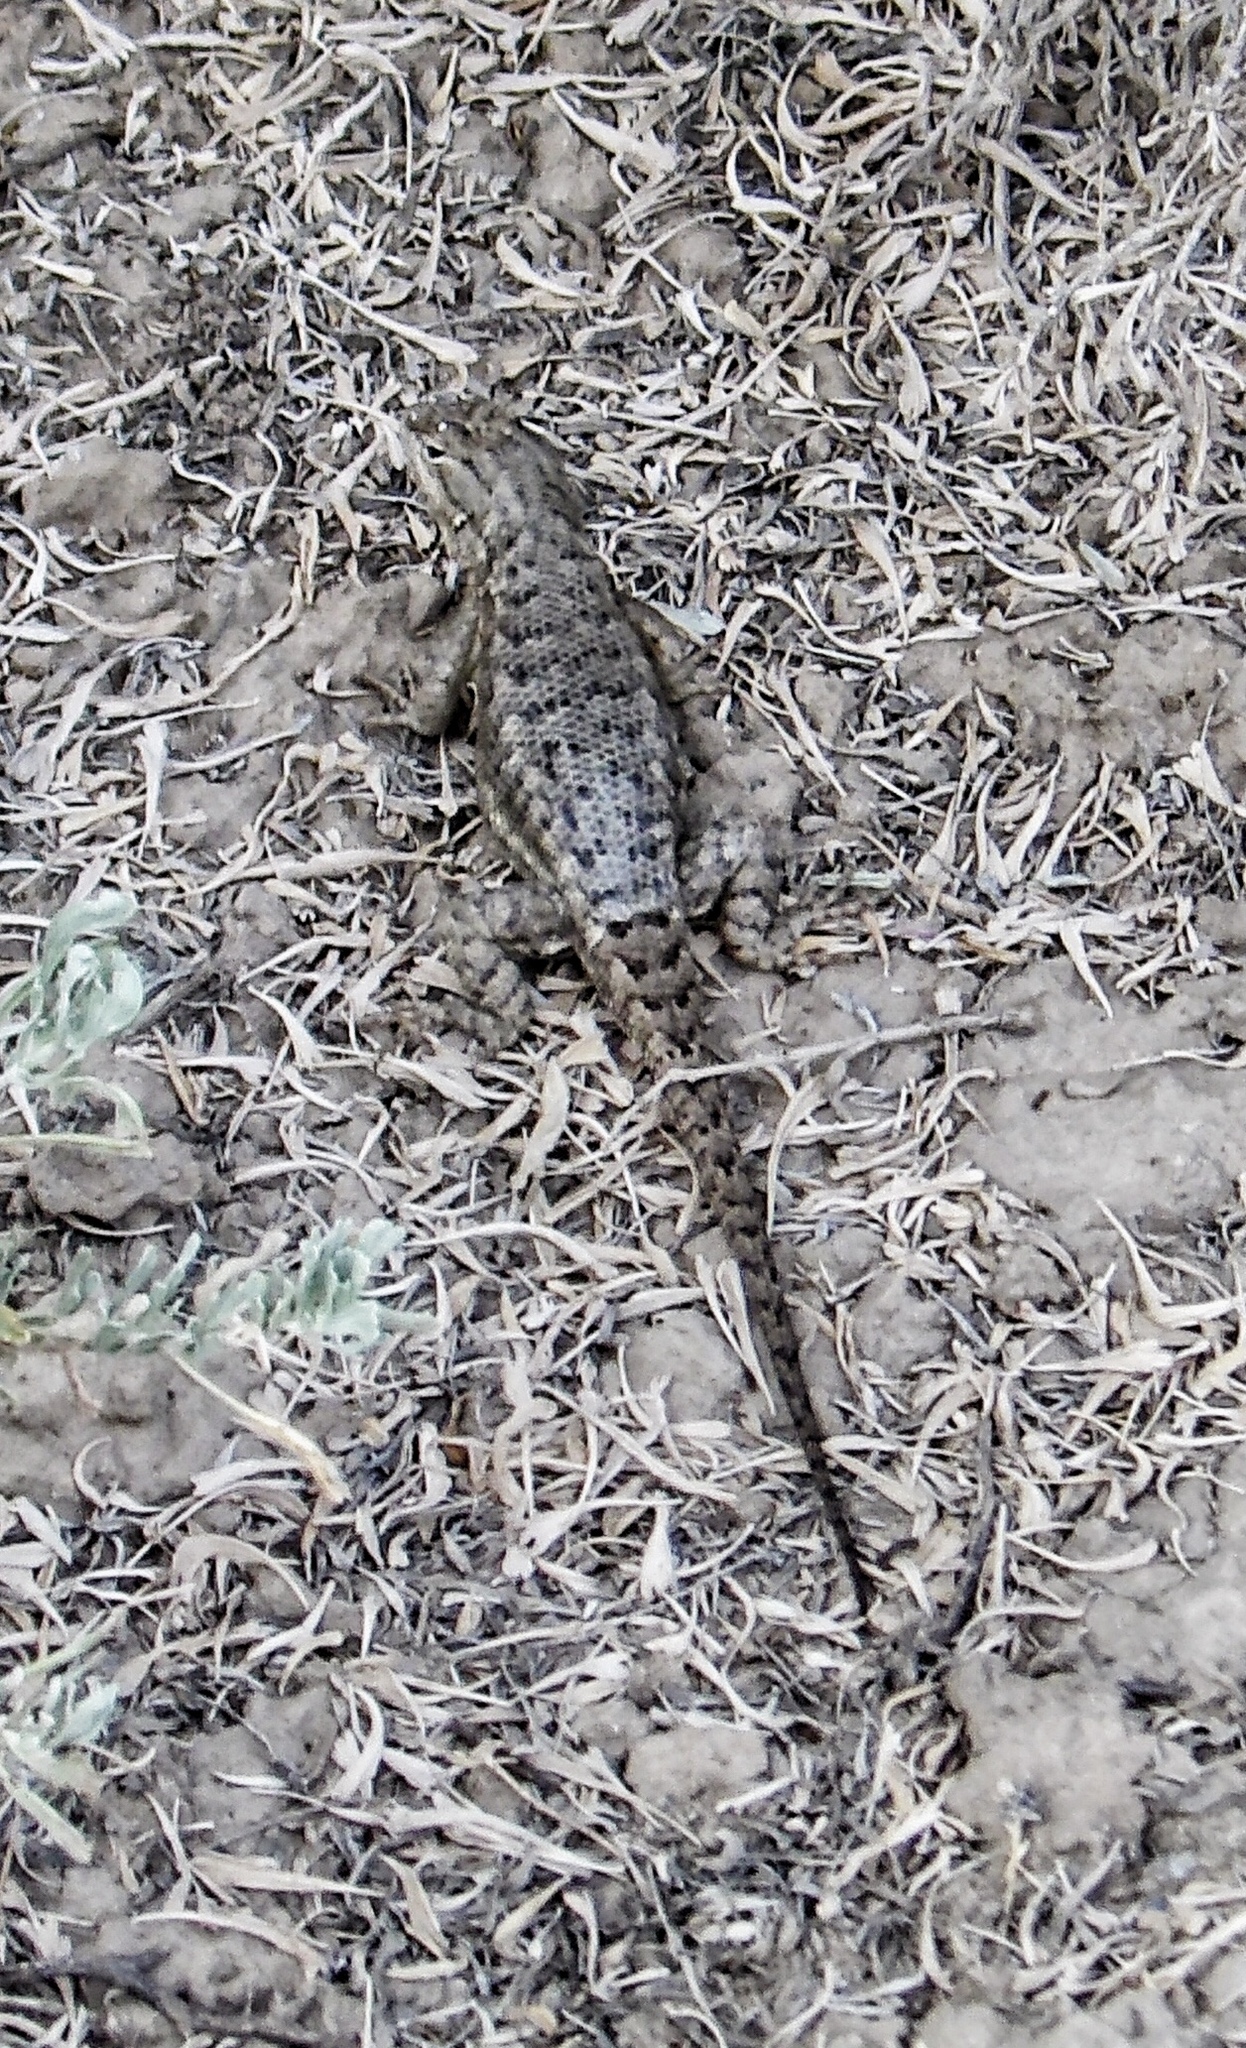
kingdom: Animalia
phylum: Chordata
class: Squamata
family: Phrynosomatidae
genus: Sceloporus
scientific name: Sceloporus tristichus
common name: Plateau fence lizard
